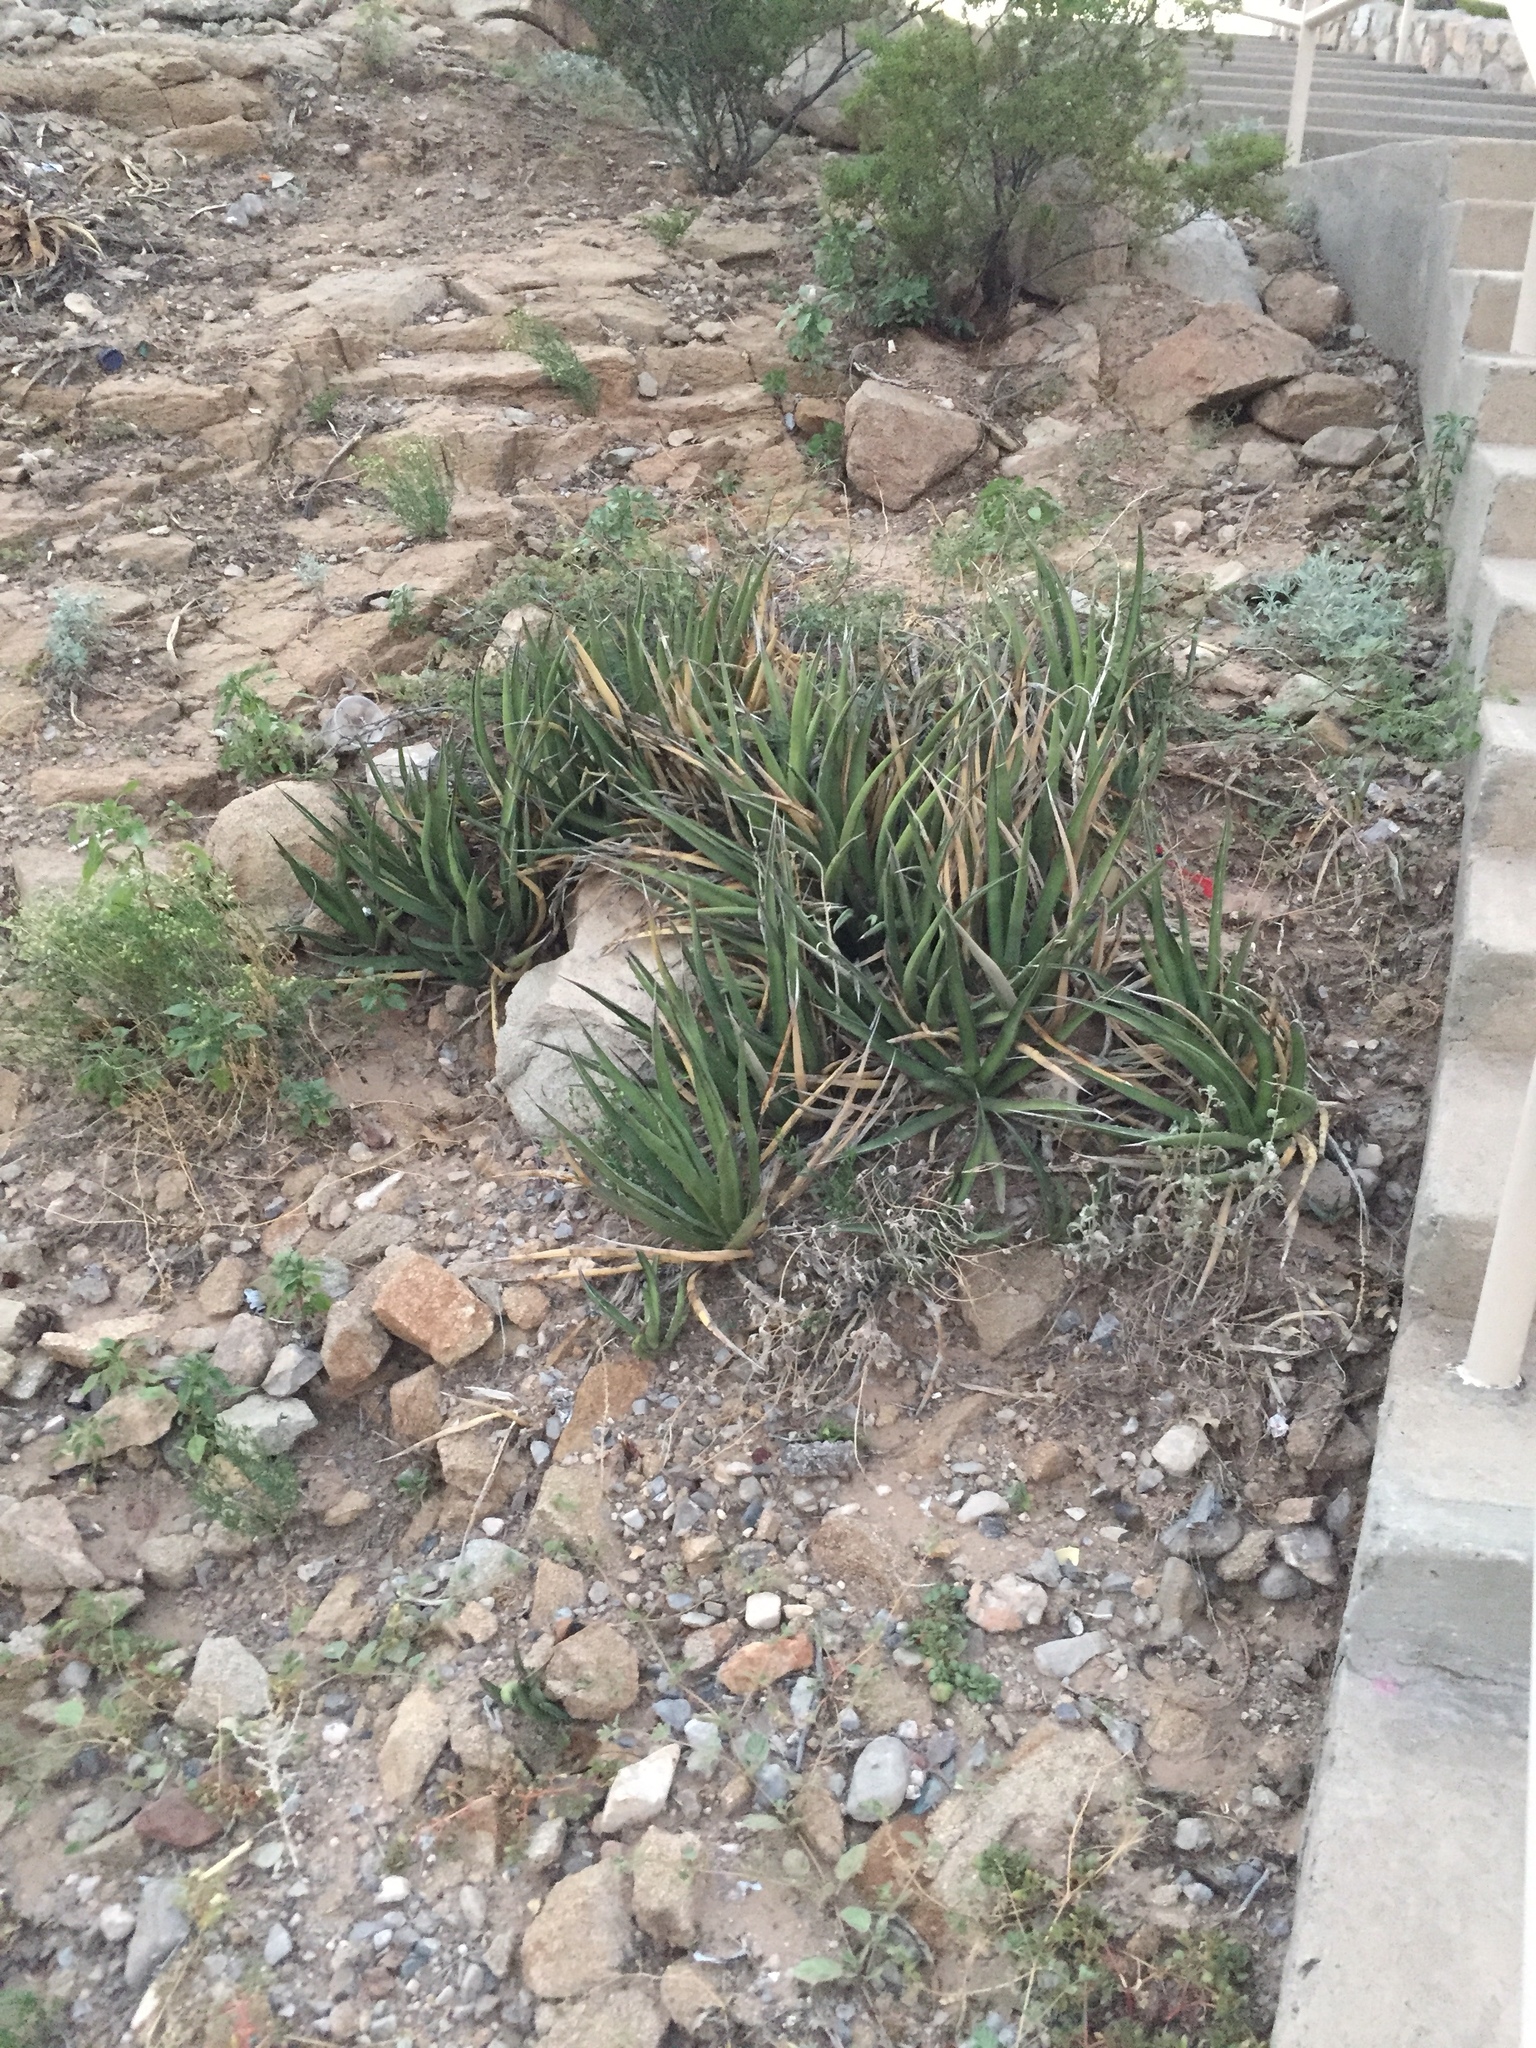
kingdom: Plantae
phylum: Tracheophyta
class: Liliopsida
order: Asparagales
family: Asparagaceae
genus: Agave
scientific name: Agave lechuguilla
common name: Lecheguilla agave
